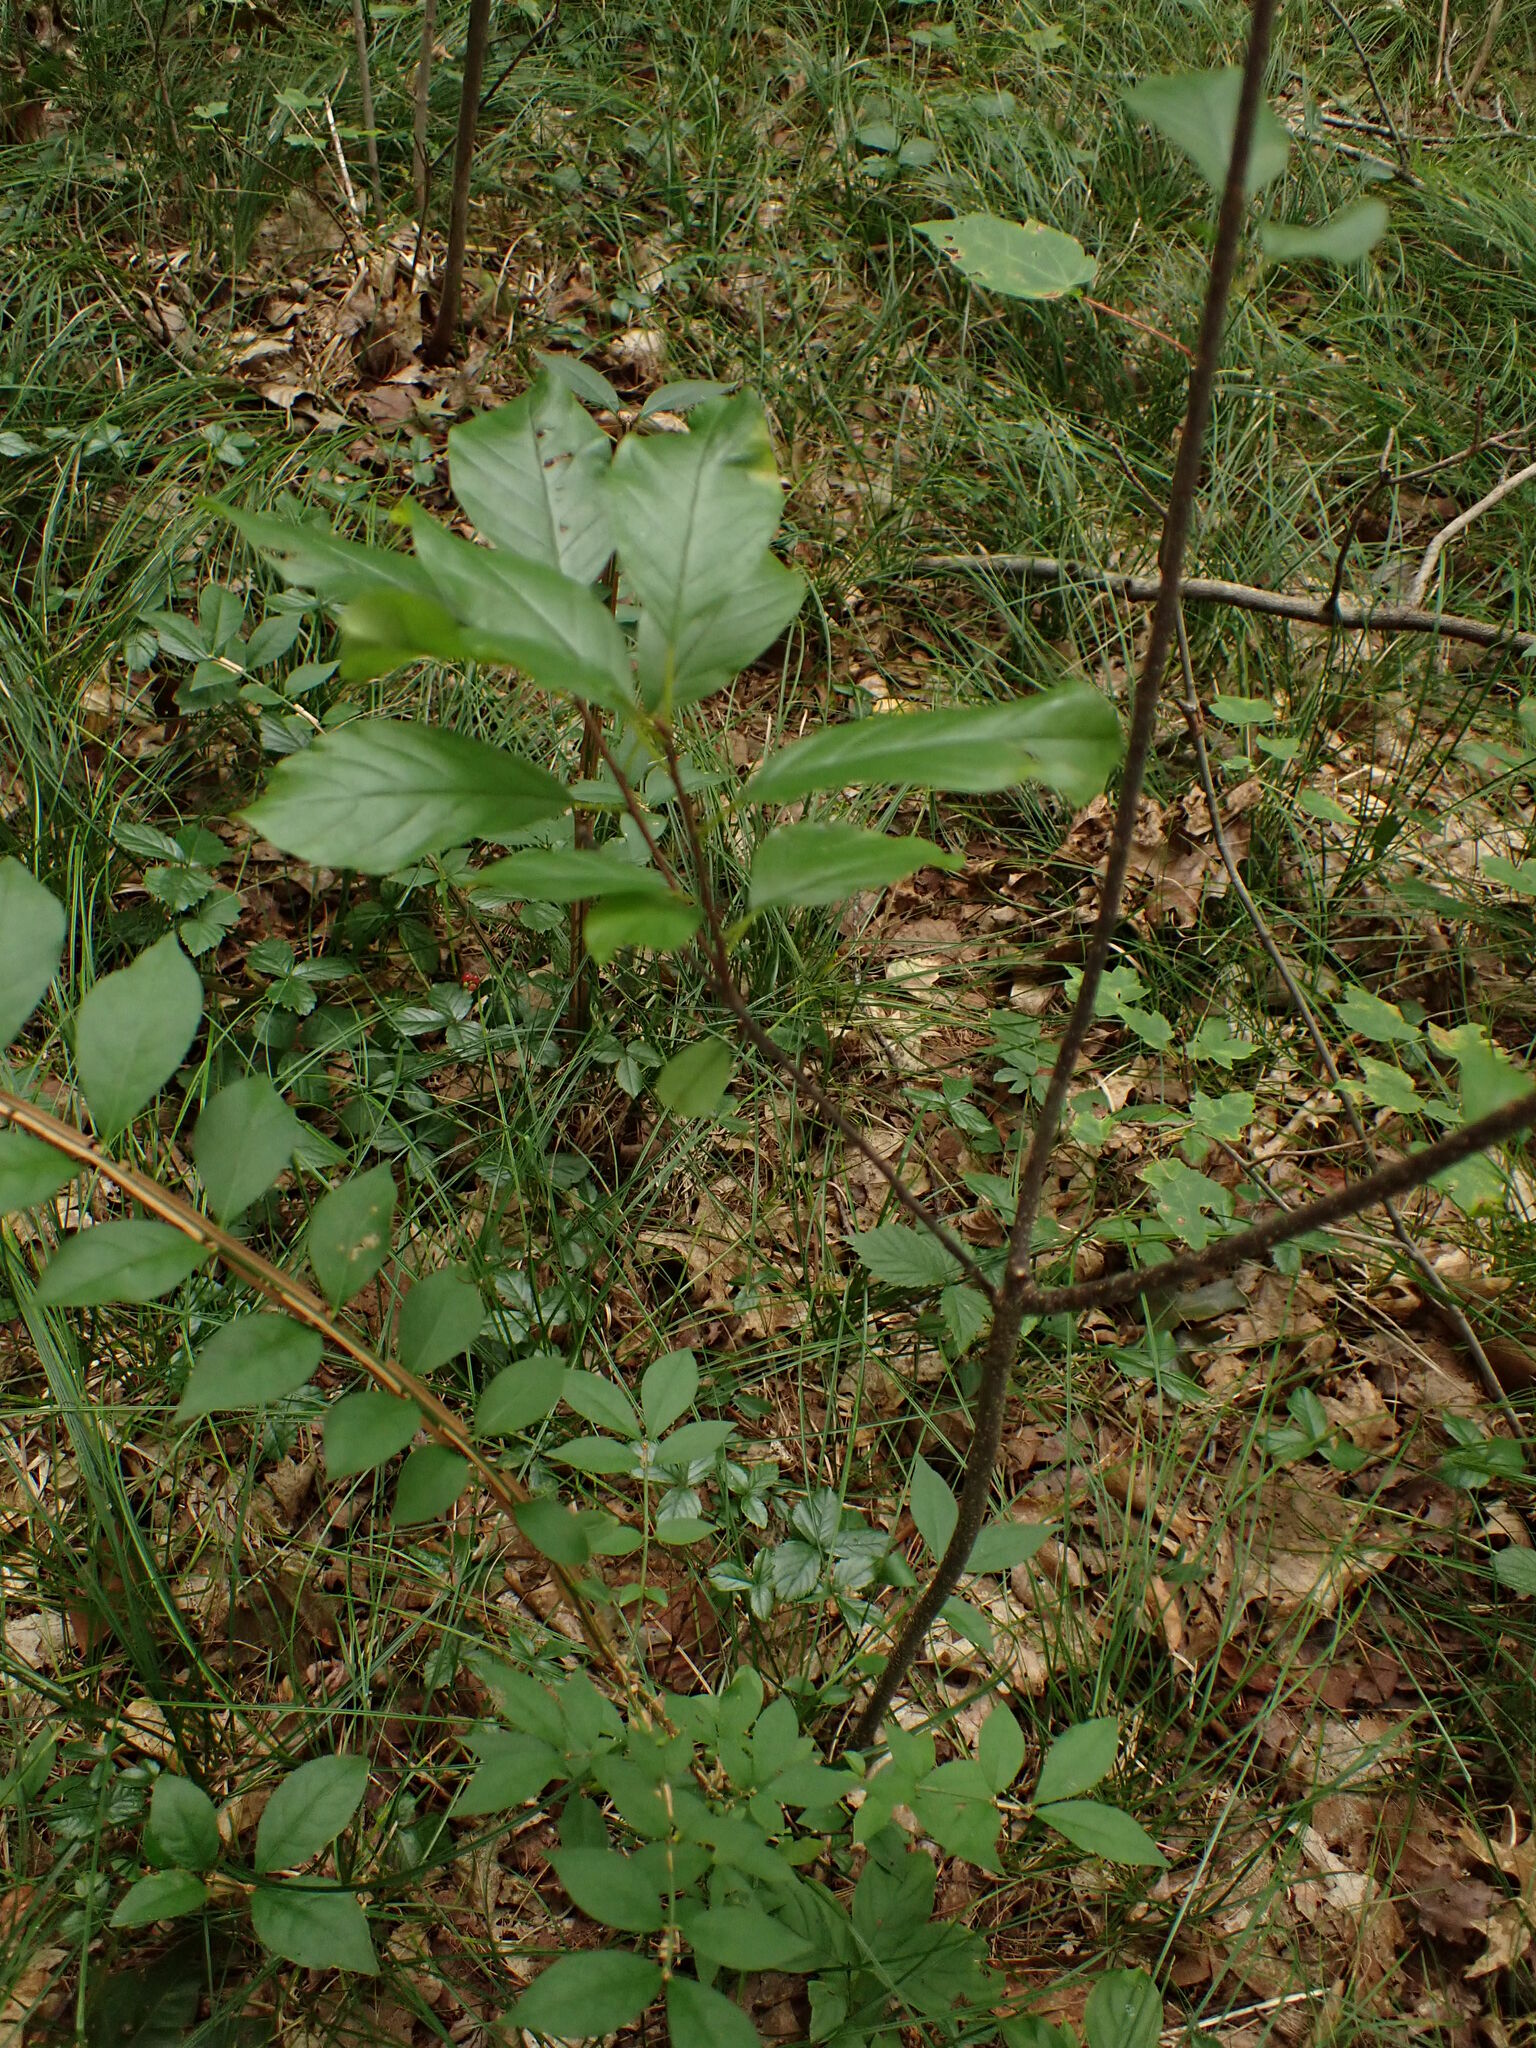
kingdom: Plantae
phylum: Tracheophyta
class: Magnoliopsida
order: Celastrales
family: Celastraceae
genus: Euonymus
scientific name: Euonymus alatus
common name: Winged euonymus
